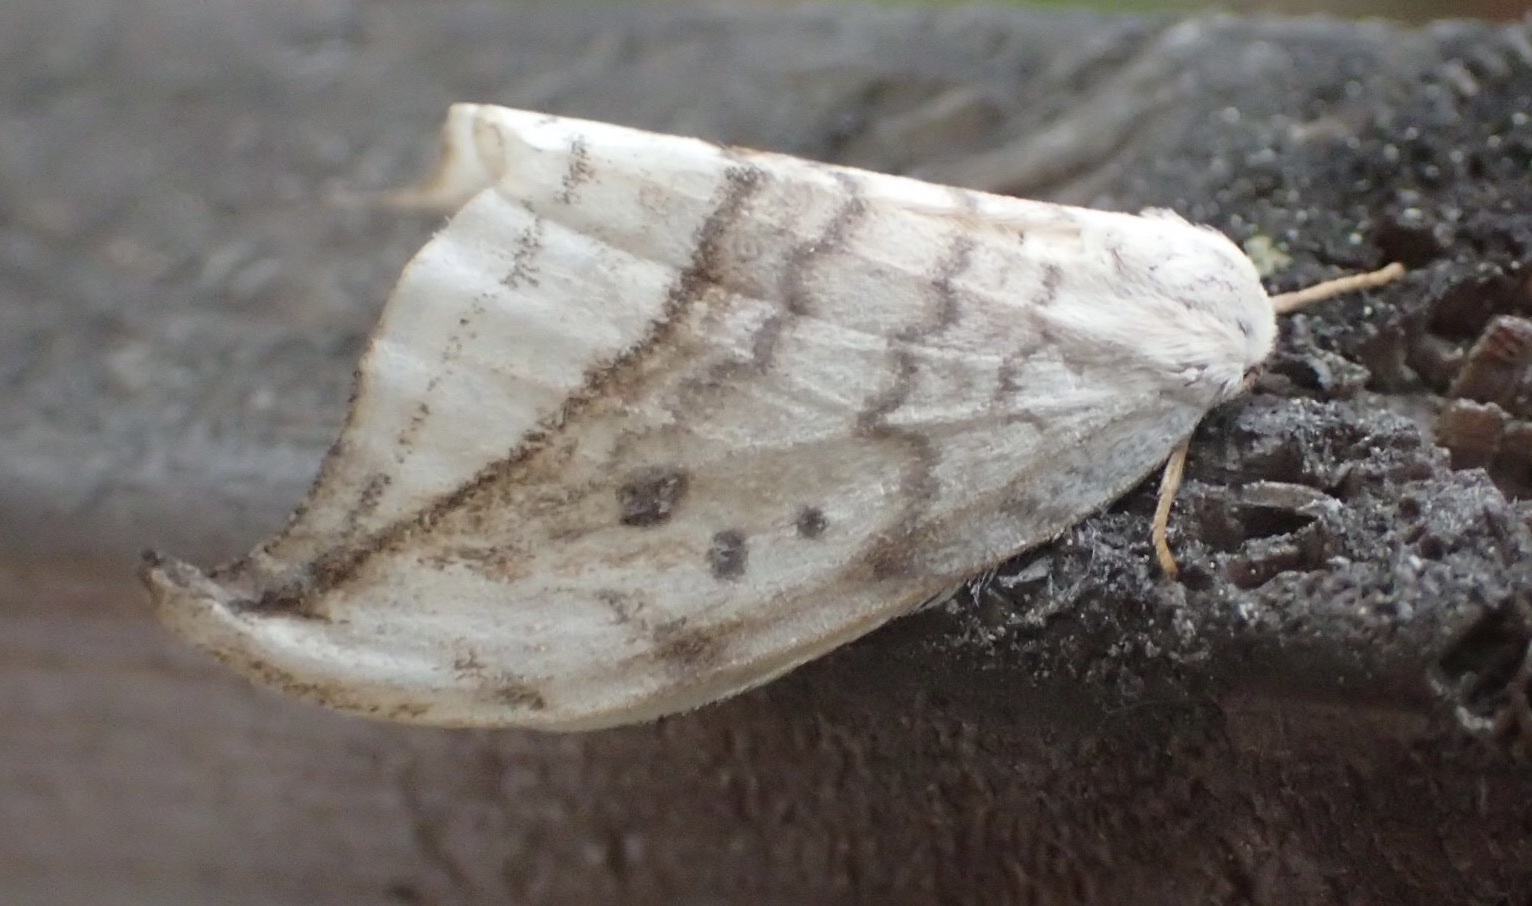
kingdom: Animalia
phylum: Arthropoda
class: Insecta
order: Lepidoptera
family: Drepanidae
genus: Drepana
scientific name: Drepana arcuata
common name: Arched hooktip moth
